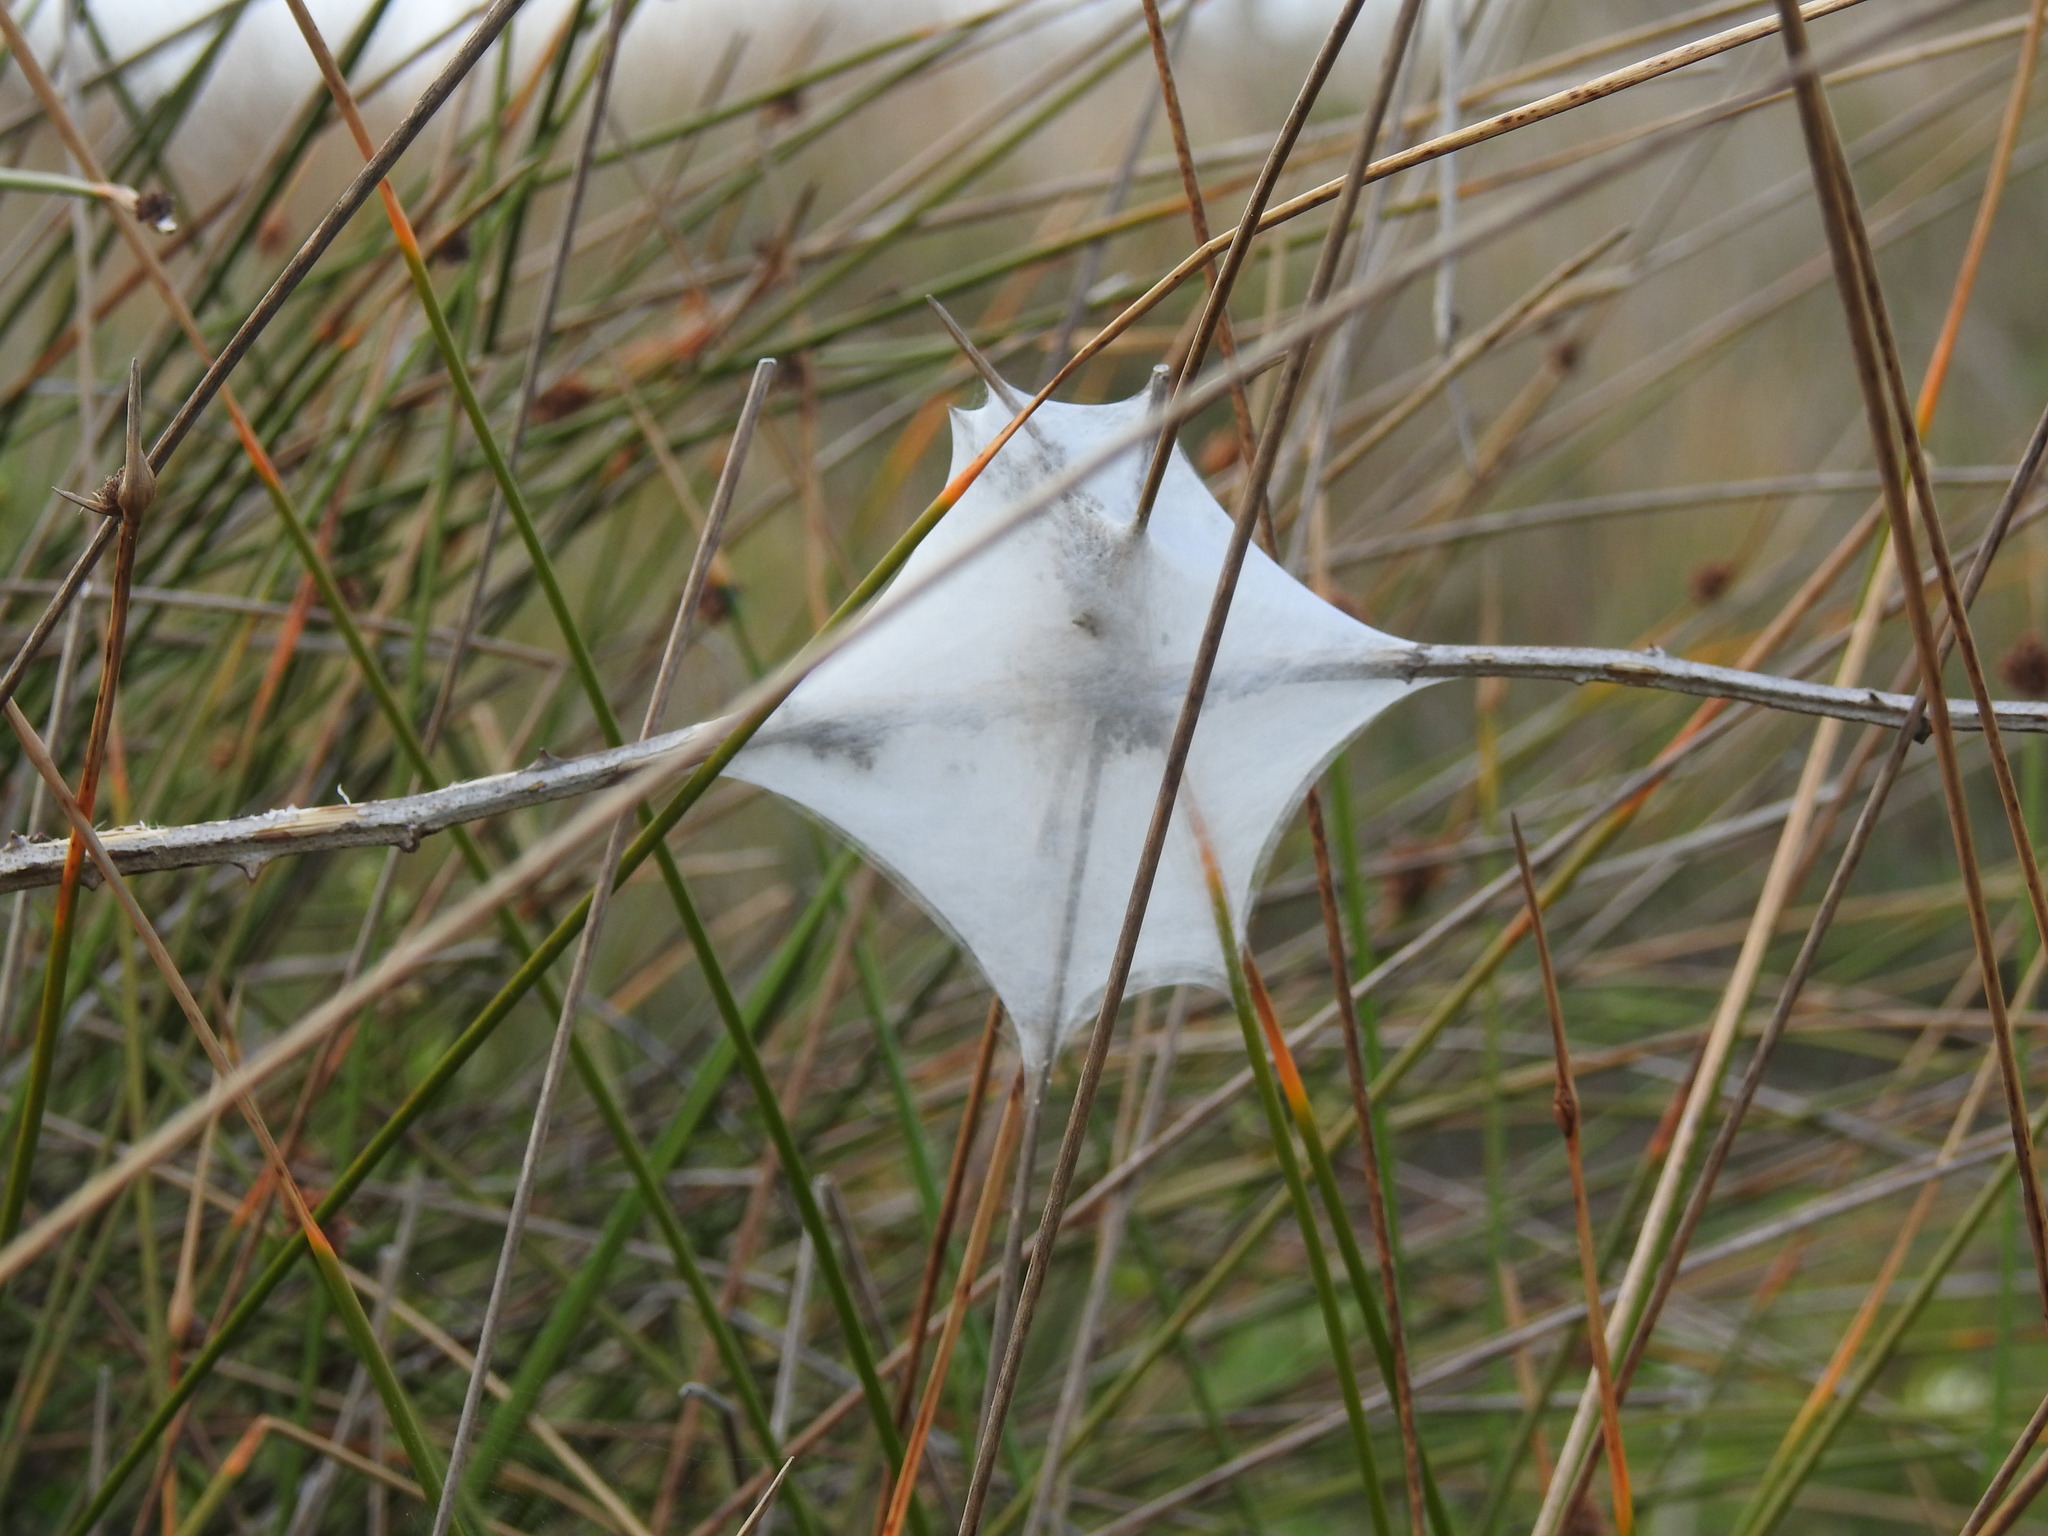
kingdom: Animalia
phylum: Arthropoda
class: Arachnida
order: Araneae
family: Pisauridae
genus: Dolomedes
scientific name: Dolomedes minor
